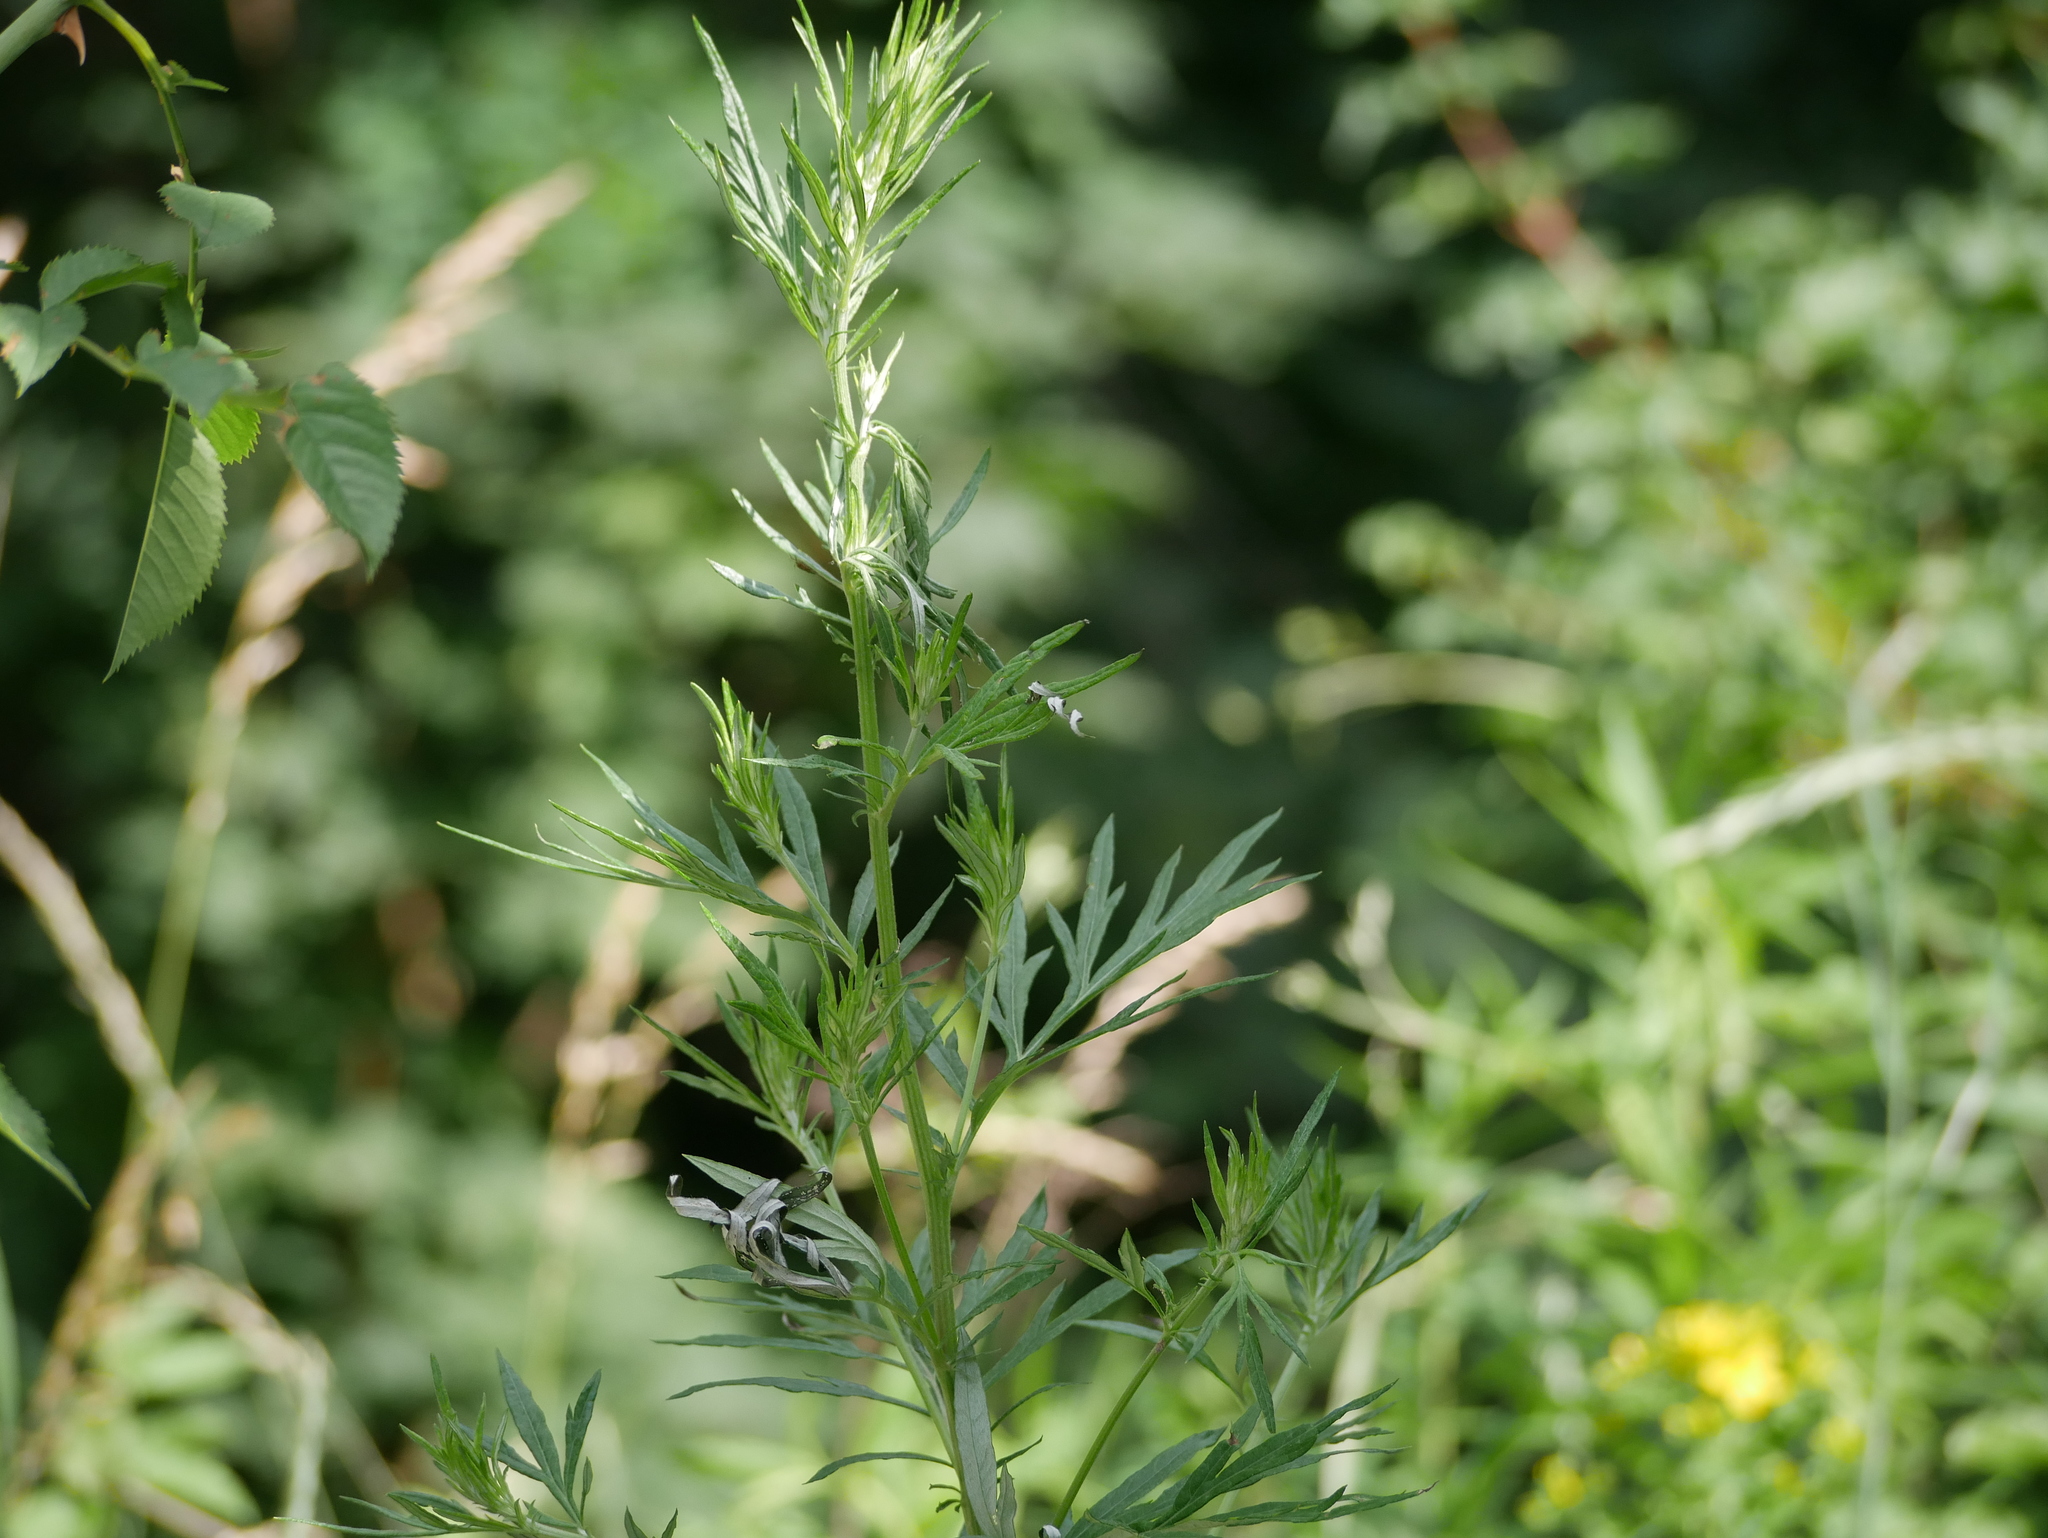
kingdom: Plantae
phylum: Tracheophyta
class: Magnoliopsida
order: Asterales
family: Asteraceae
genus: Artemisia
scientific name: Artemisia vulgaris
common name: Mugwort
